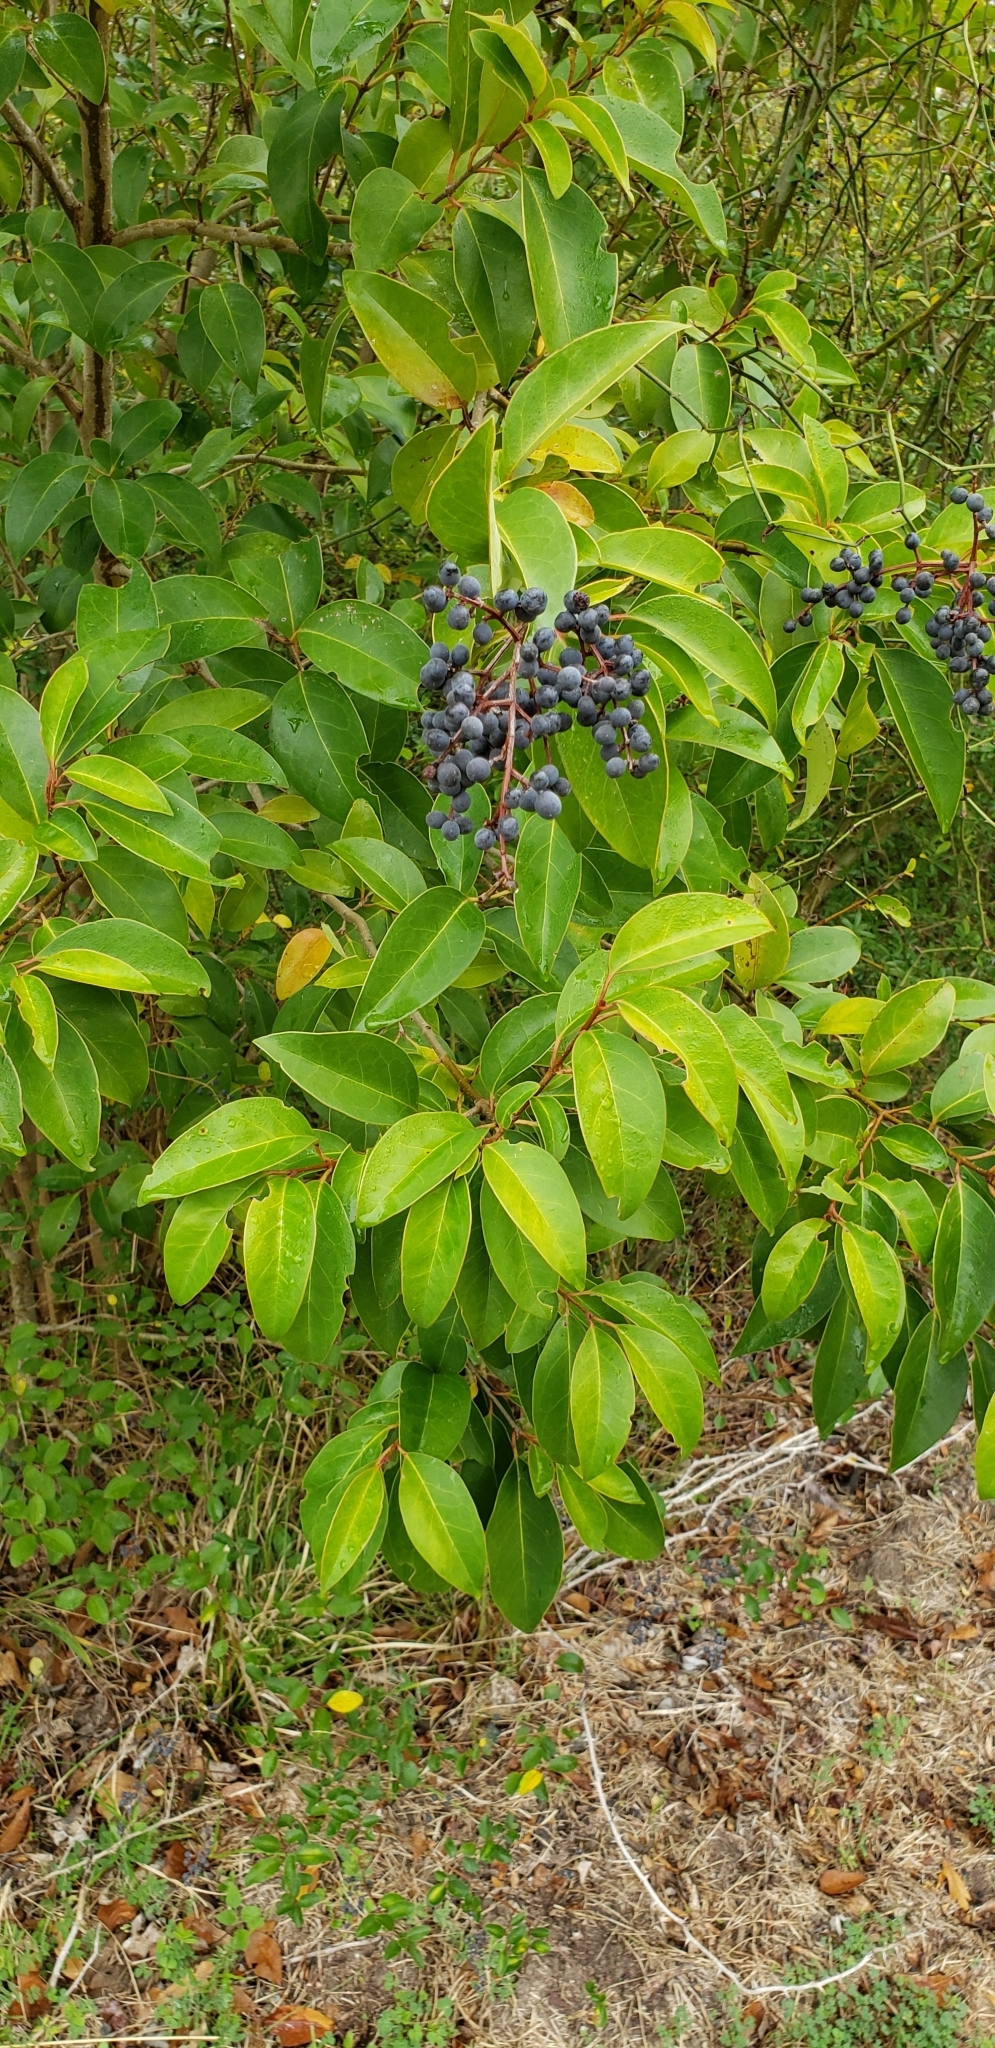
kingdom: Plantae
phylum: Tracheophyta
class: Magnoliopsida
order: Lamiales
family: Oleaceae
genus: Ligustrum
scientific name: Ligustrum lucidum
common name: Glossy privet
